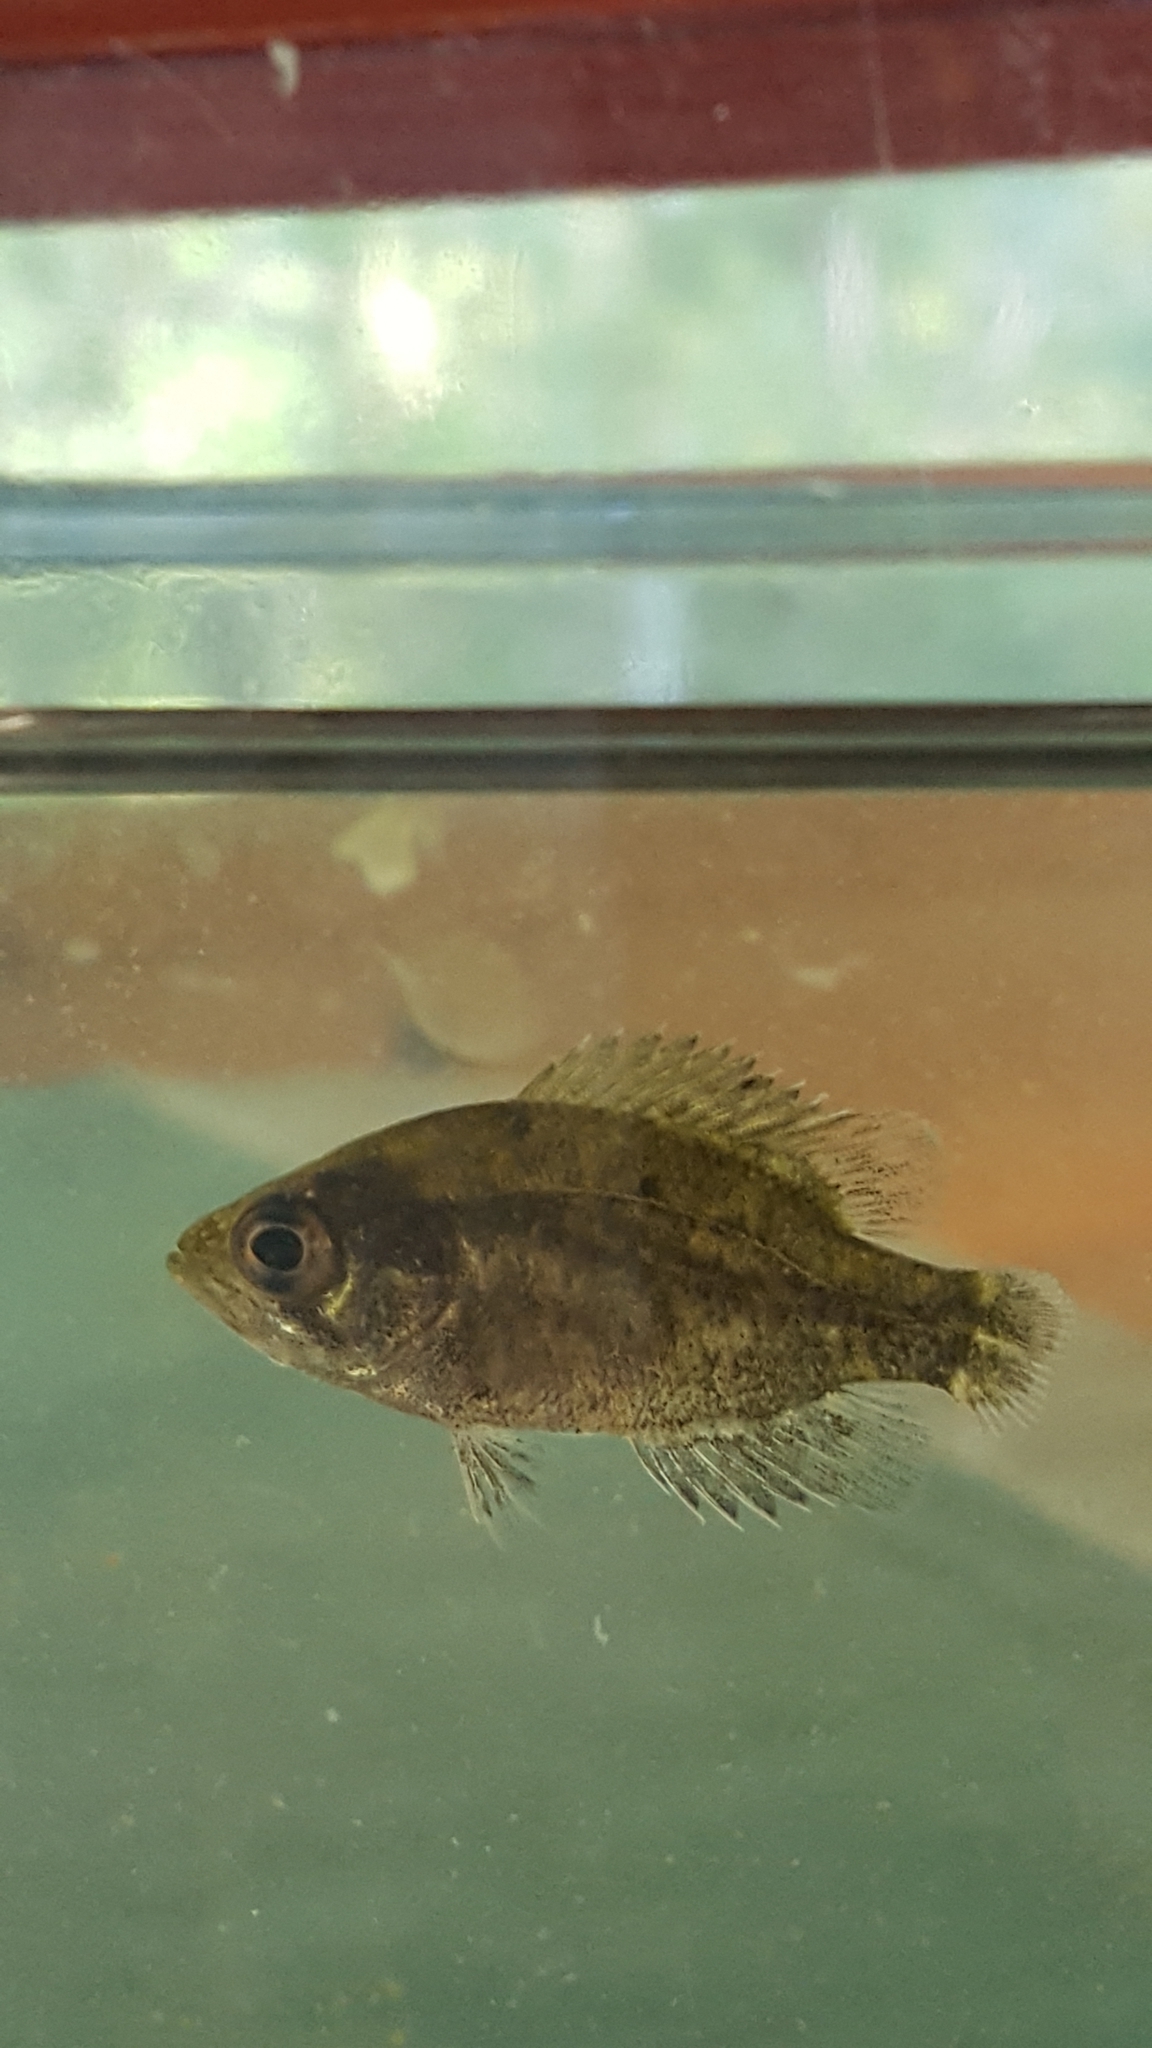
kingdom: Animalia
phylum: Chordata
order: Perciformes
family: Centrarchidae
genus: Ambloplites
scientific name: Ambloplites rupestris
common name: Rock bass
